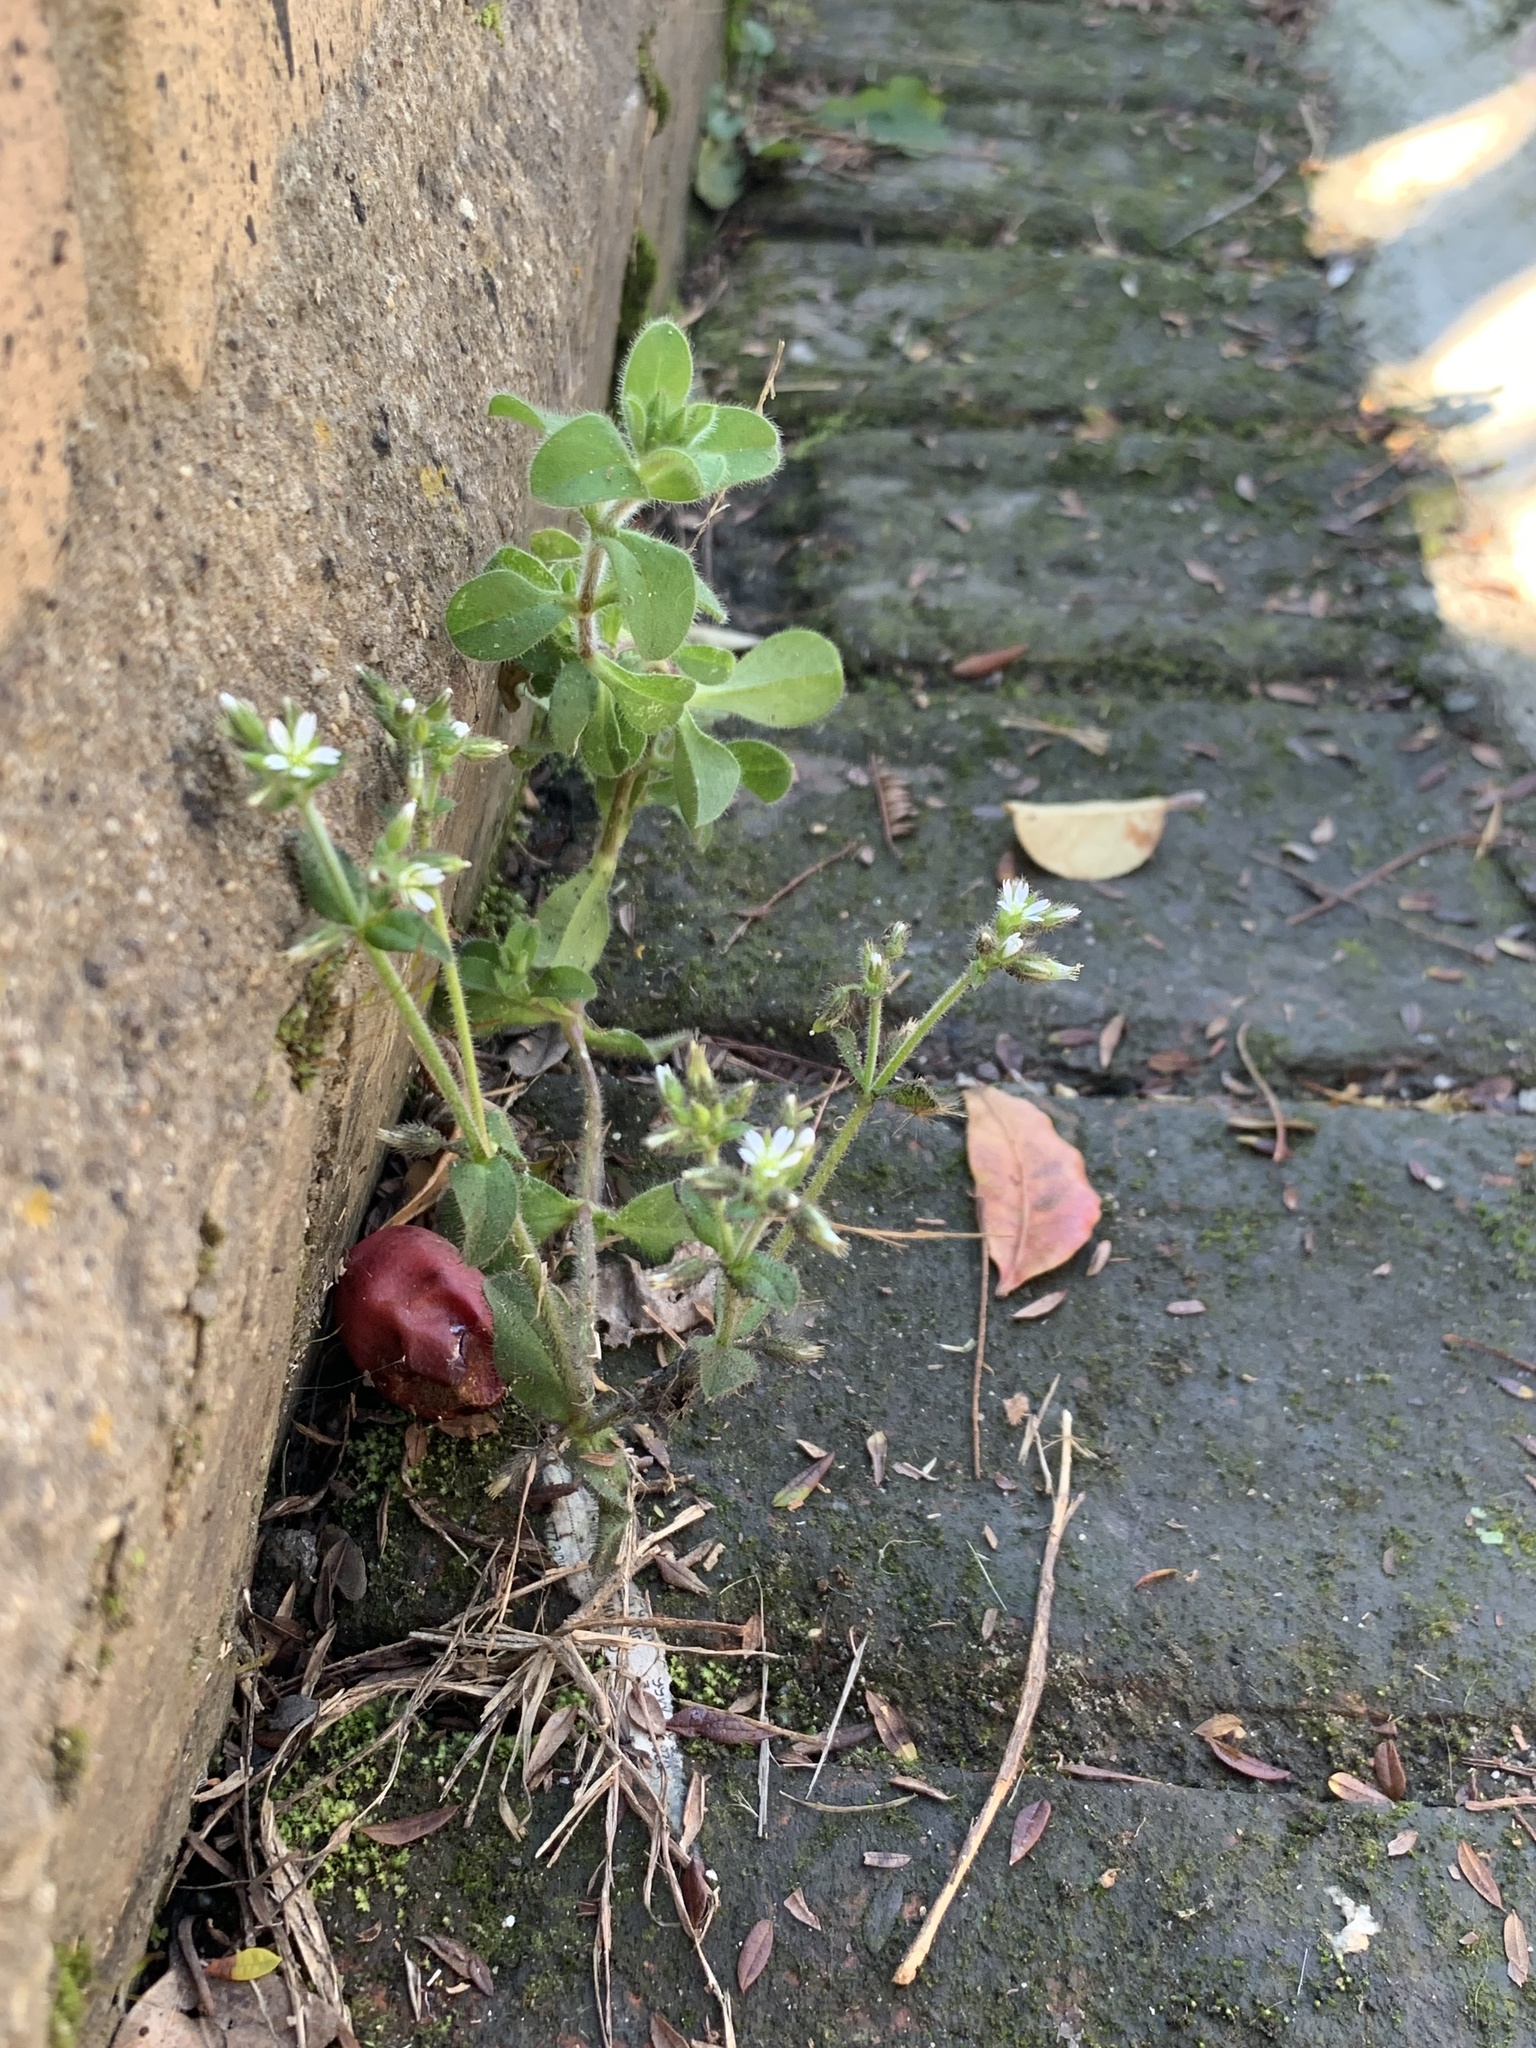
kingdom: Plantae
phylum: Tracheophyta
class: Magnoliopsida
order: Caryophyllales
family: Caryophyllaceae
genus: Cerastium
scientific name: Cerastium glomeratum
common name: Sticky chickweed
